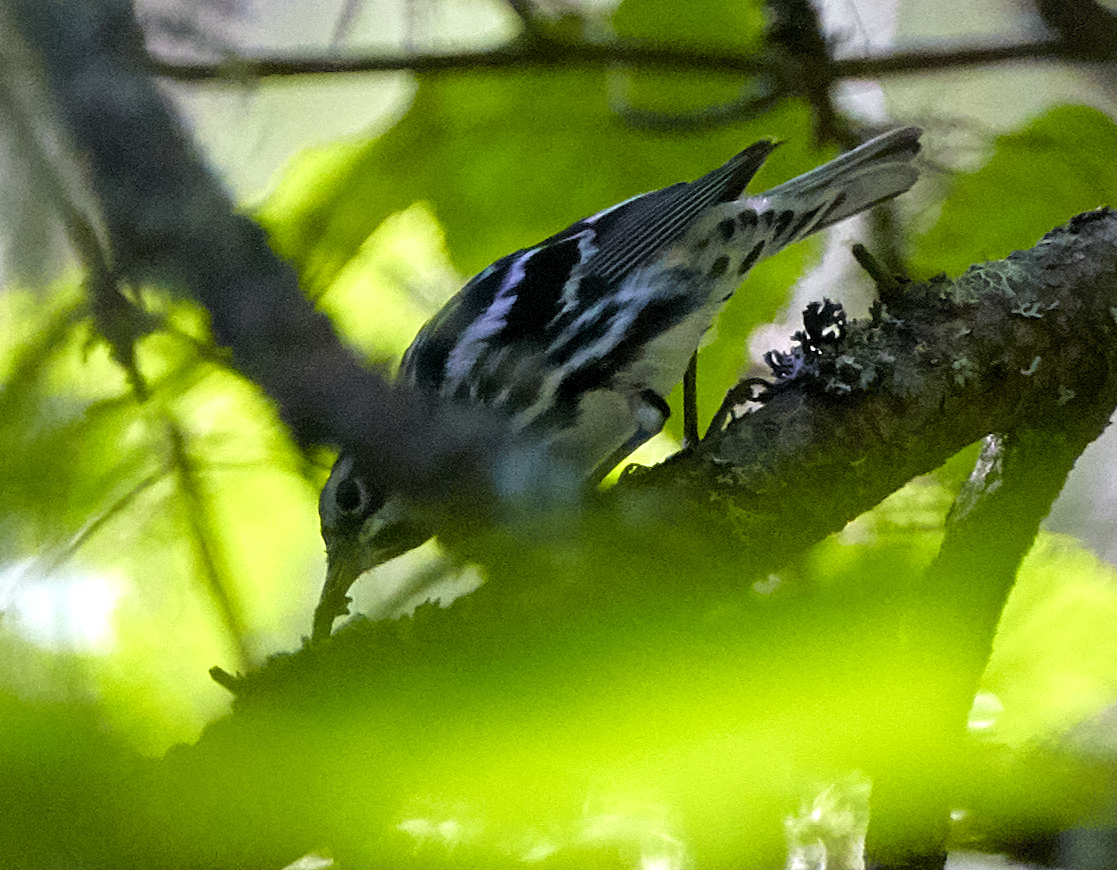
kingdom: Animalia
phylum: Chordata
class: Aves
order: Passeriformes
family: Parulidae
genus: Mniotilta
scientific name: Mniotilta varia
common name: Black-and-white warbler
